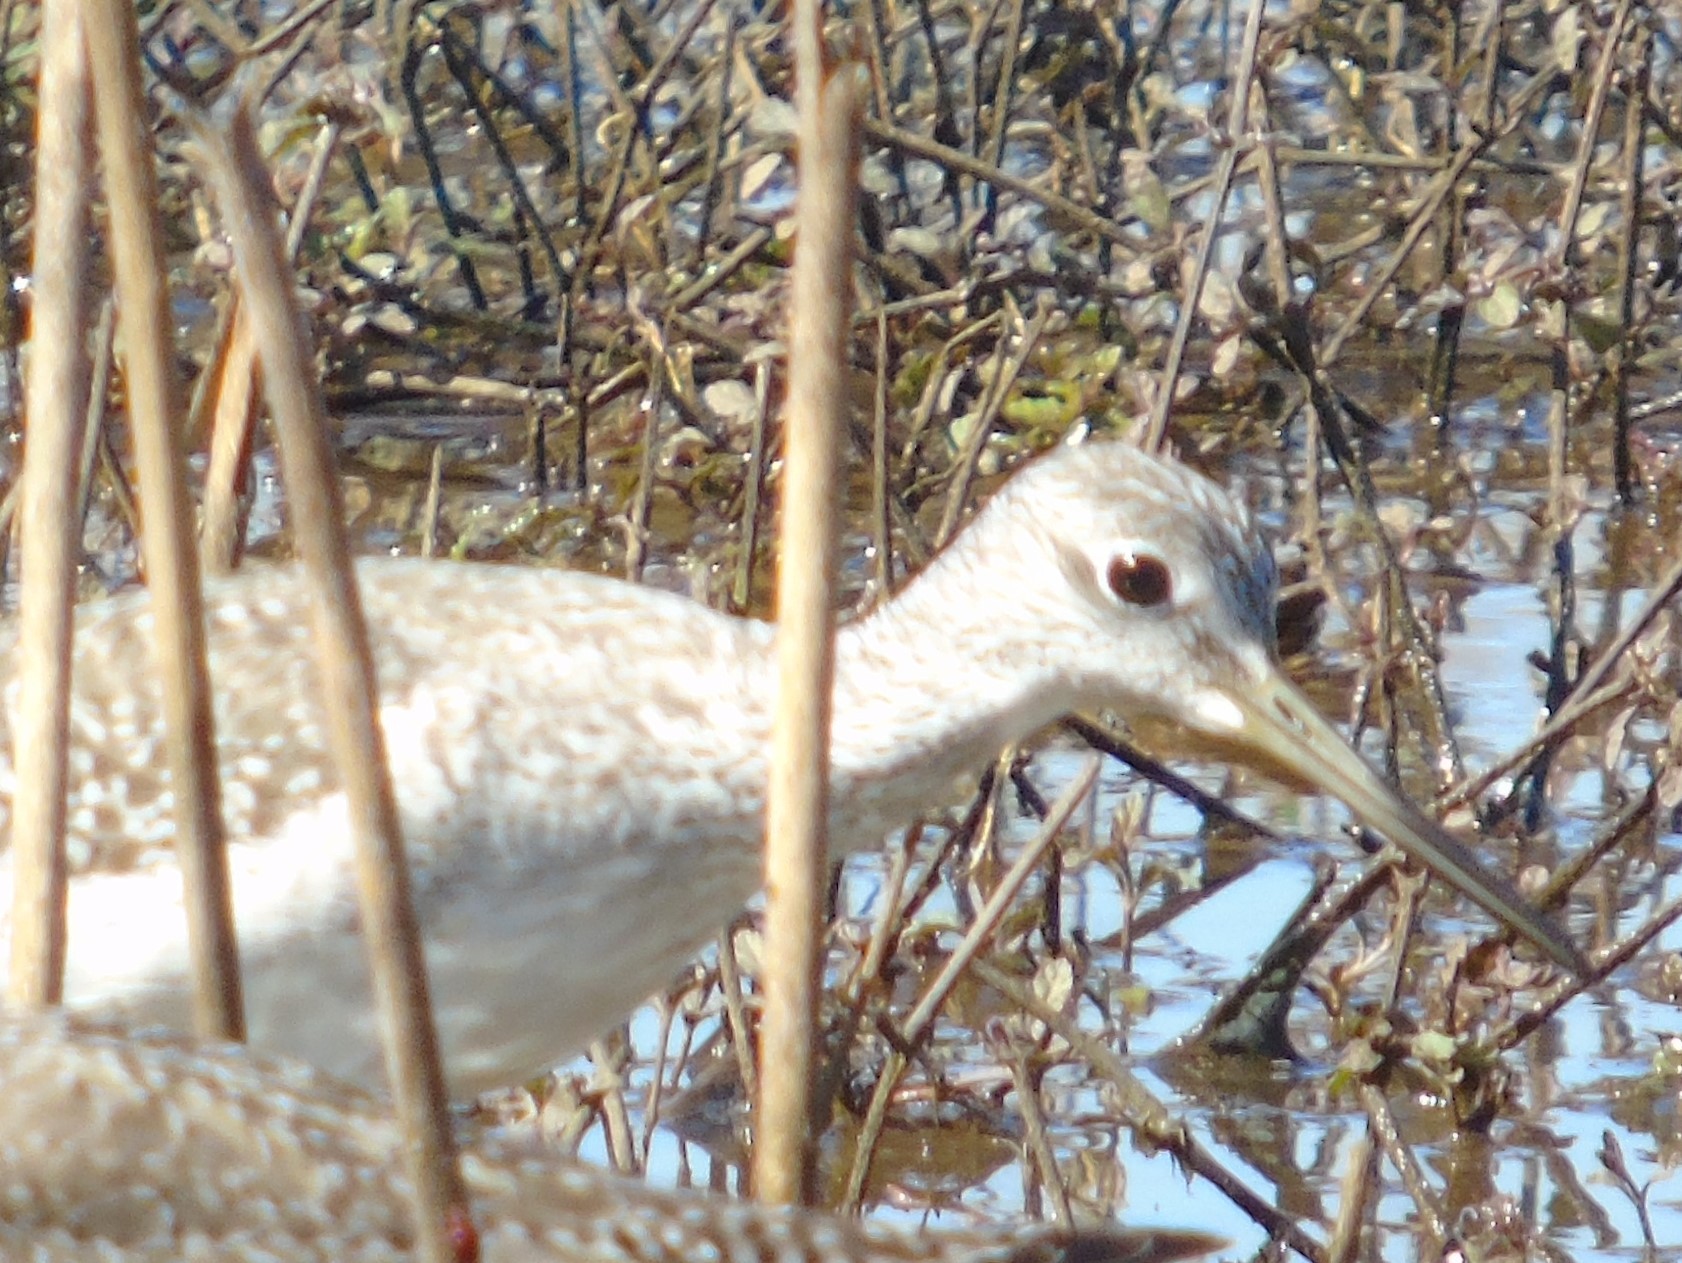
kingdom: Animalia
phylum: Chordata
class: Aves
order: Charadriiformes
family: Scolopacidae
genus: Tringa
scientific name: Tringa melanoleuca
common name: Greater yellowlegs
